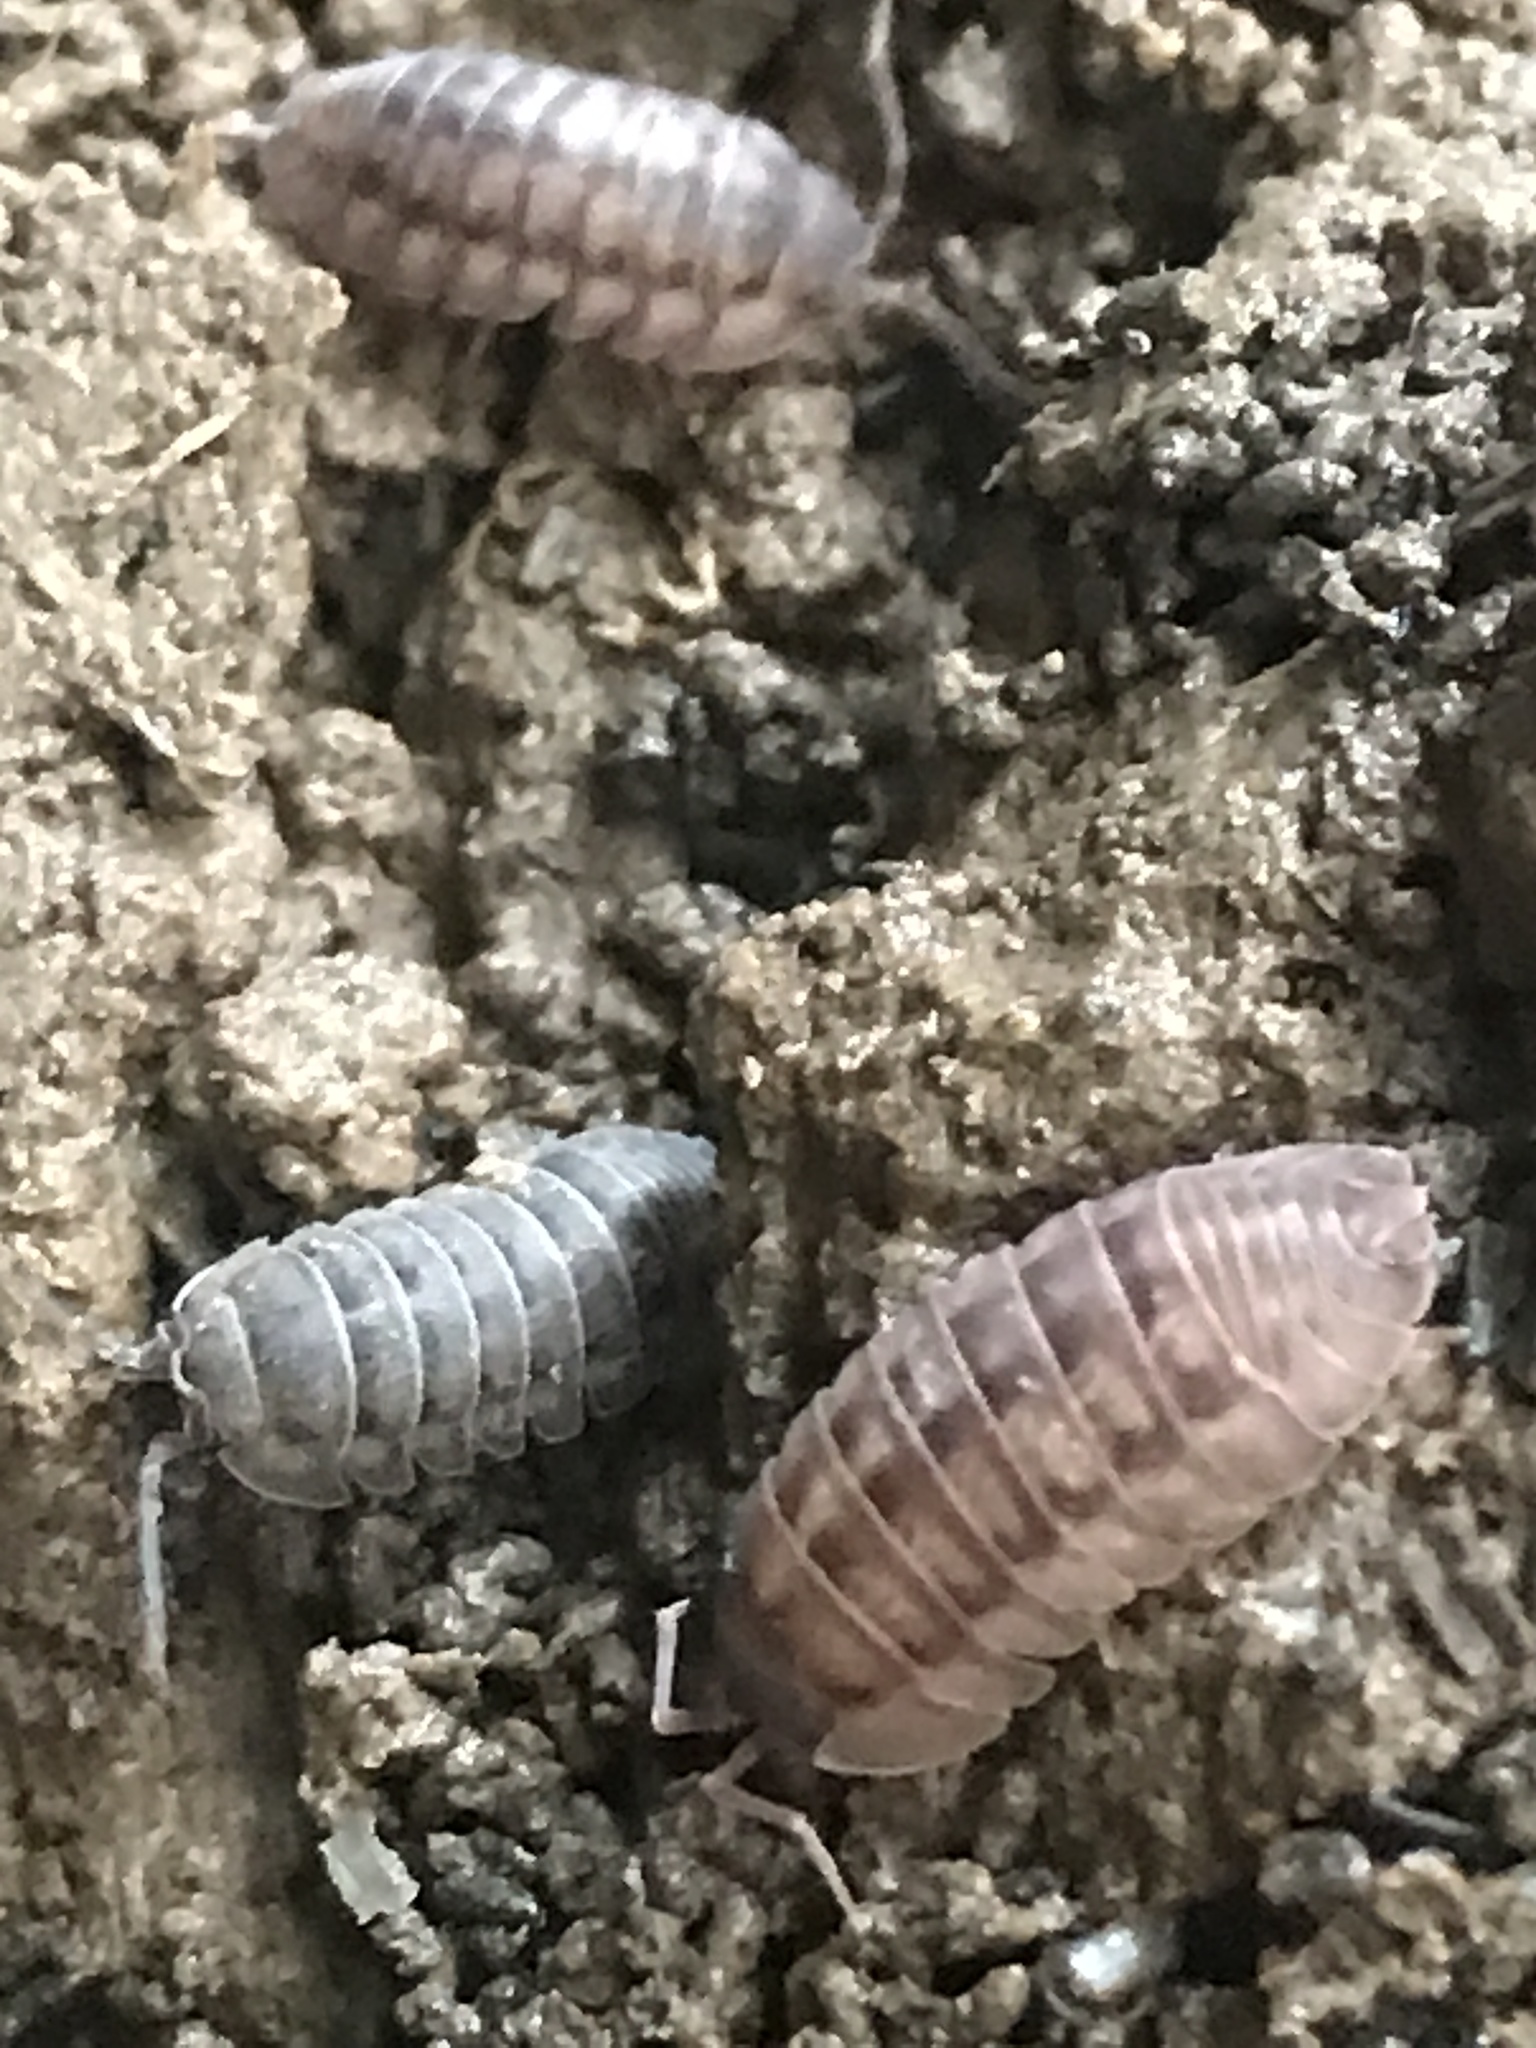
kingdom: Animalia
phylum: Arthropoda
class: Malacostraca
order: Isopoda
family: Armadillidiidae
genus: Armadillidium
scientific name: Armadillidium nasatum
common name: Isopod
